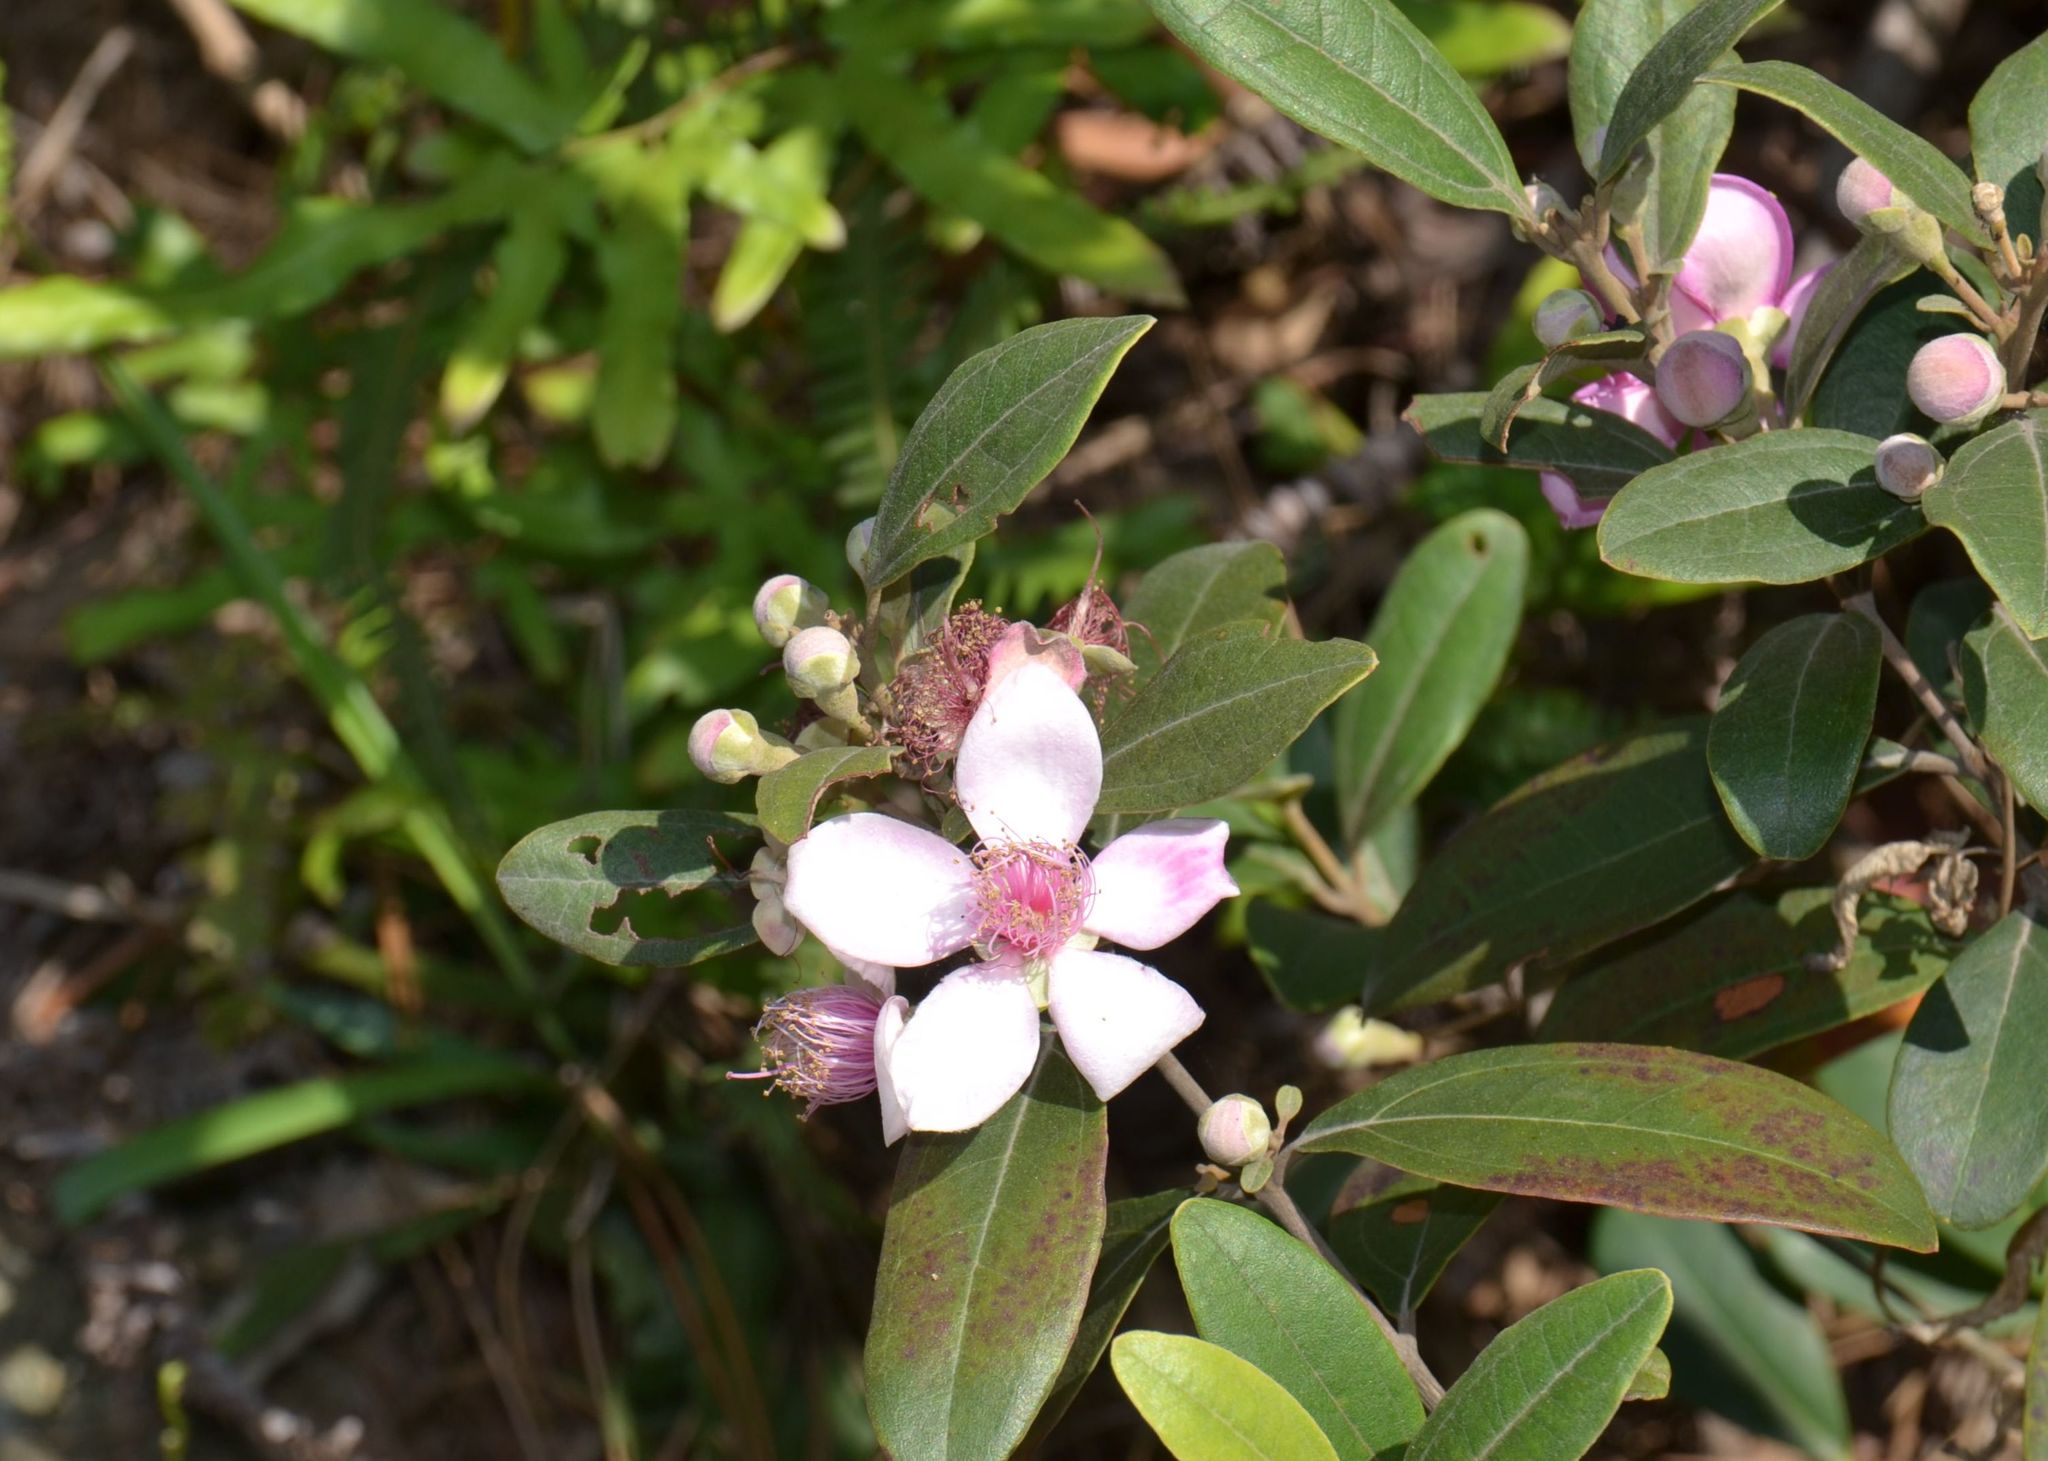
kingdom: Plantae
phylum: Tracheophyta
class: Magnoliopsida
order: Myrtales
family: Myrtaceae
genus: Rhodomyrtus
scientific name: Rhodomyrtus tomentosa
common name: Rose myrtle
